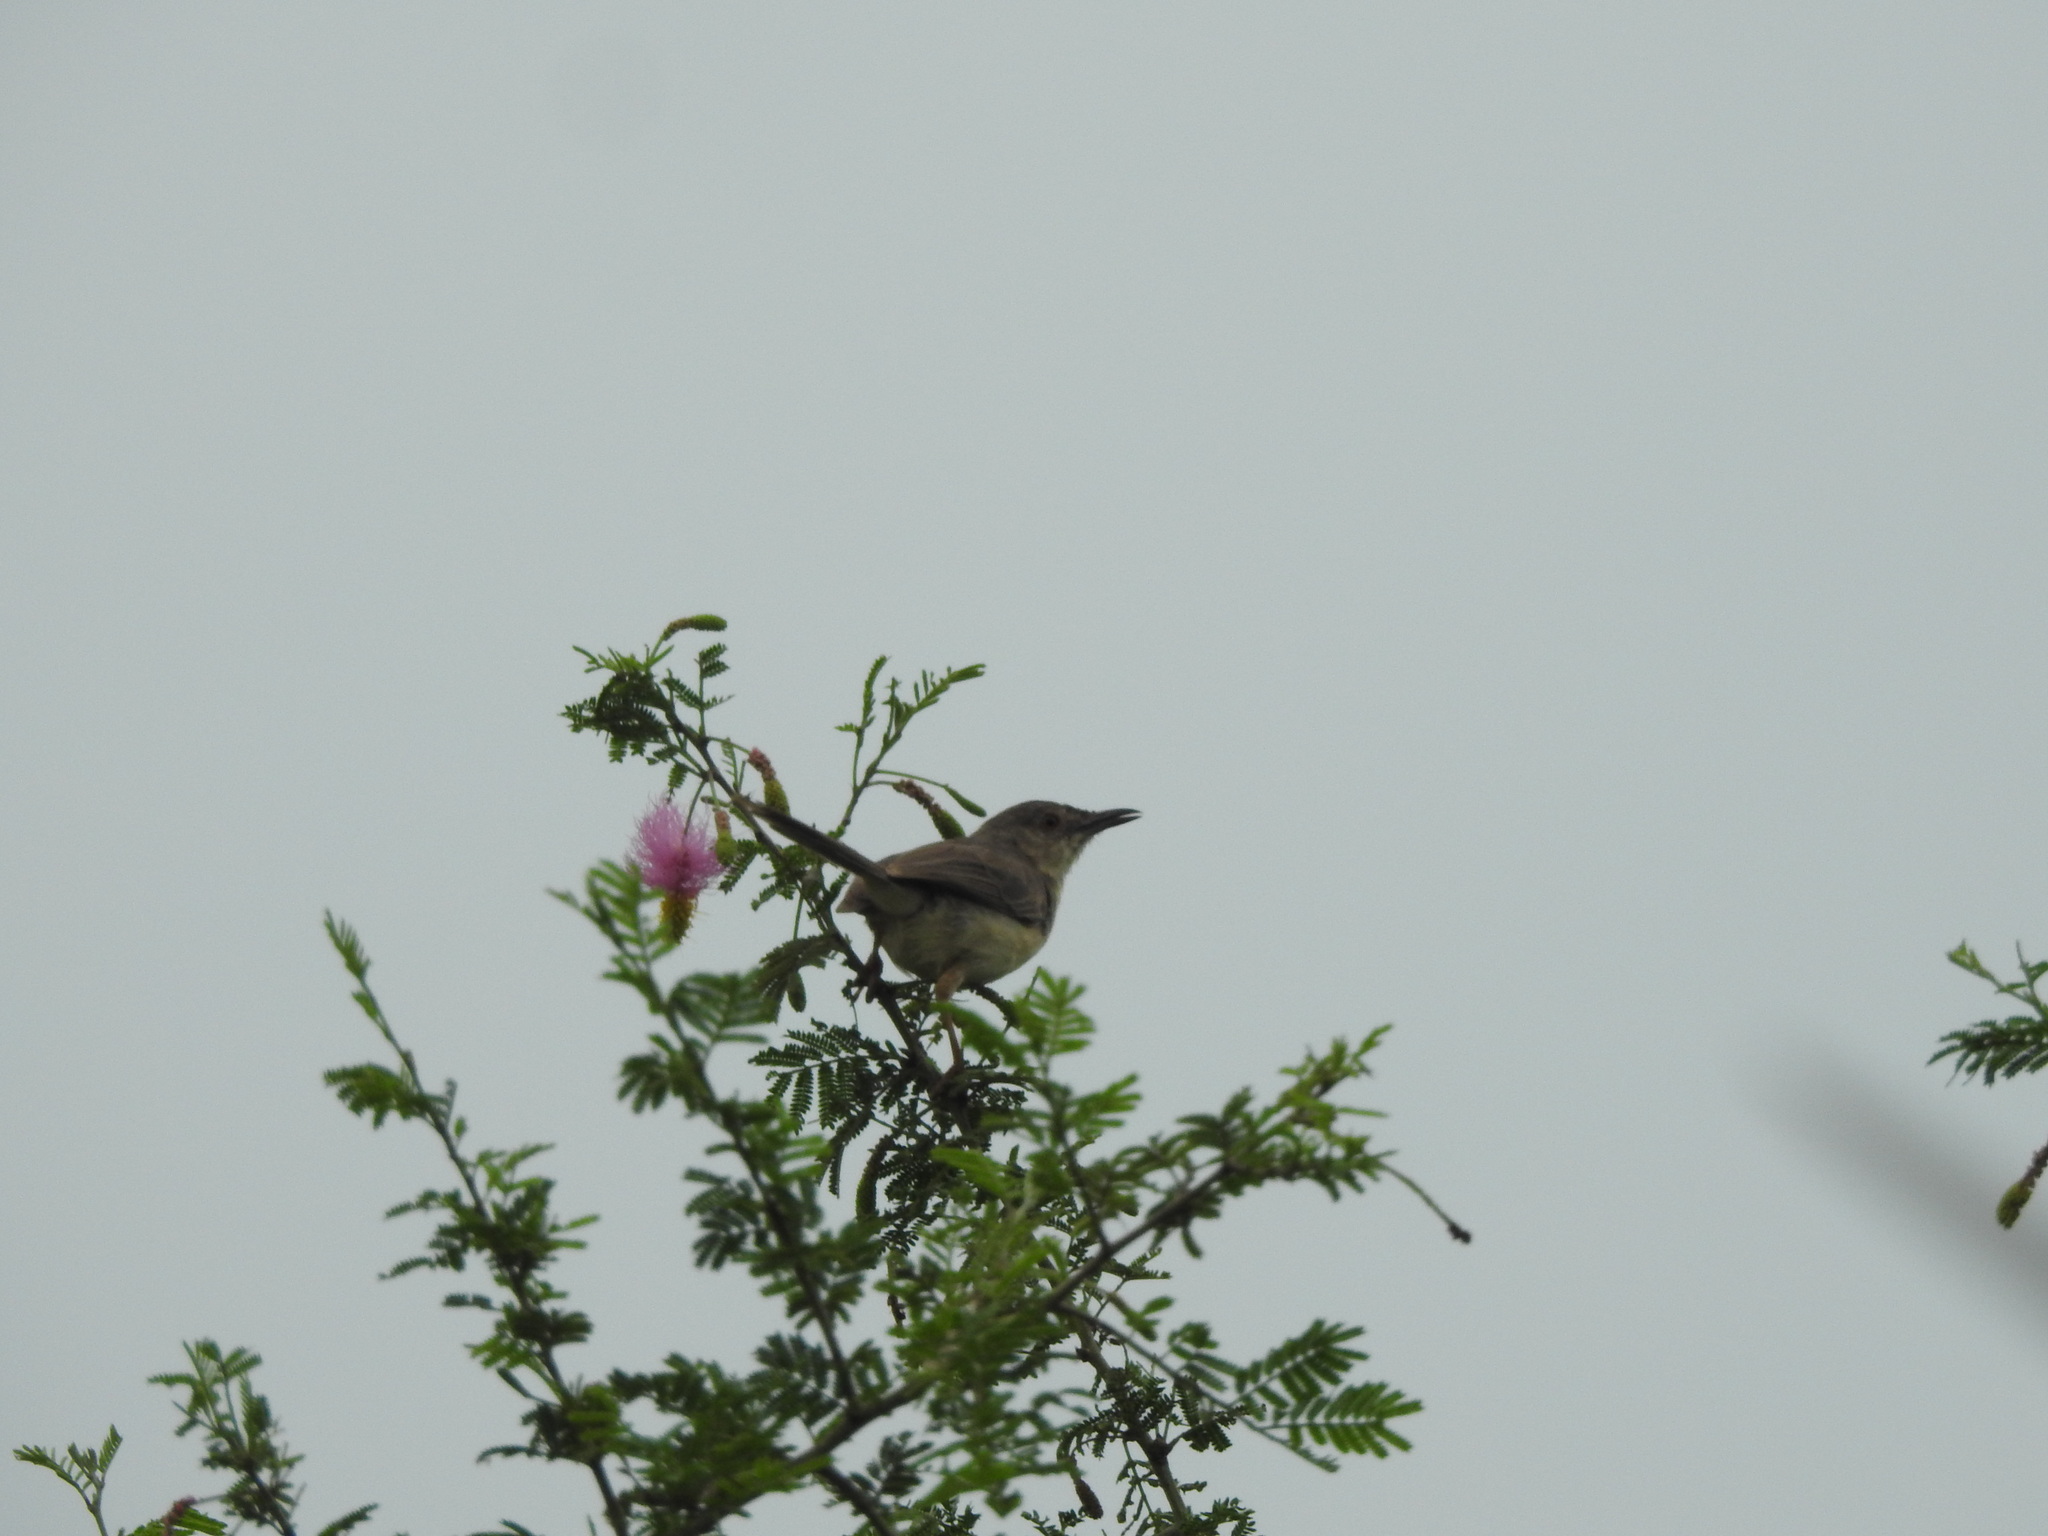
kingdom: Animalia
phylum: Chordata
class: Aves
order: Passeriformes
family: Cisticolidae
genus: Prinia
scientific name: Prinia sylvatica
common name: Jungle prinia
